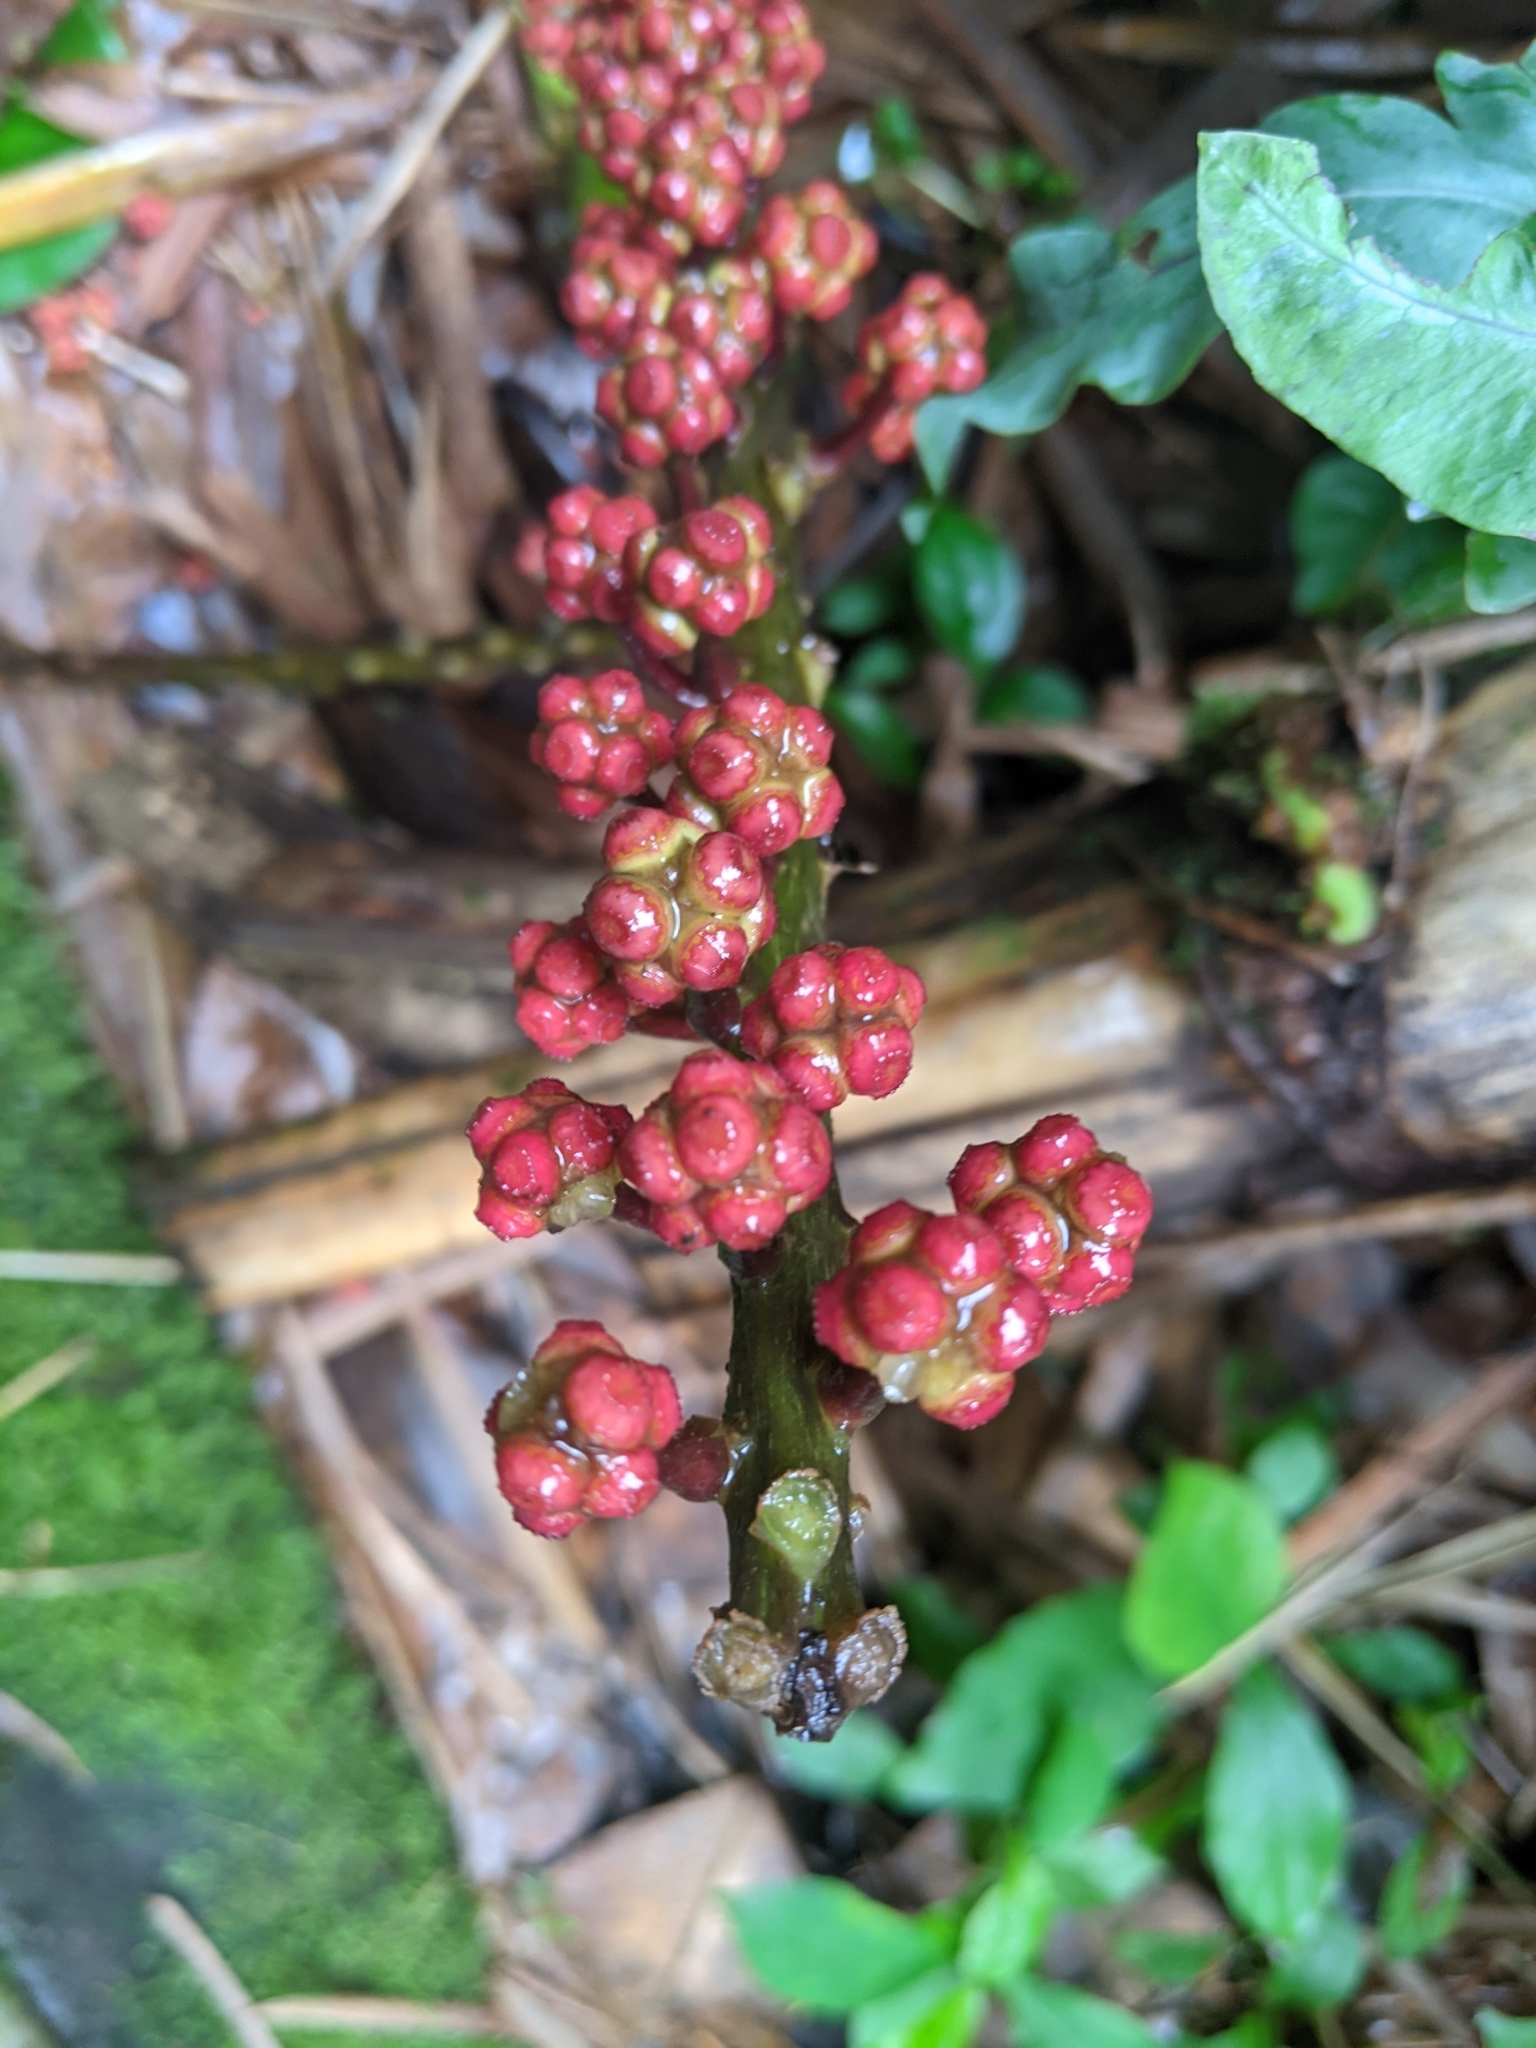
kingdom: Plantae
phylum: Tracheophyta
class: Magnoliopsida
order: Apiales
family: Araliaceae
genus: Heptapleurum
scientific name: Heptapleurum actinophyllum
